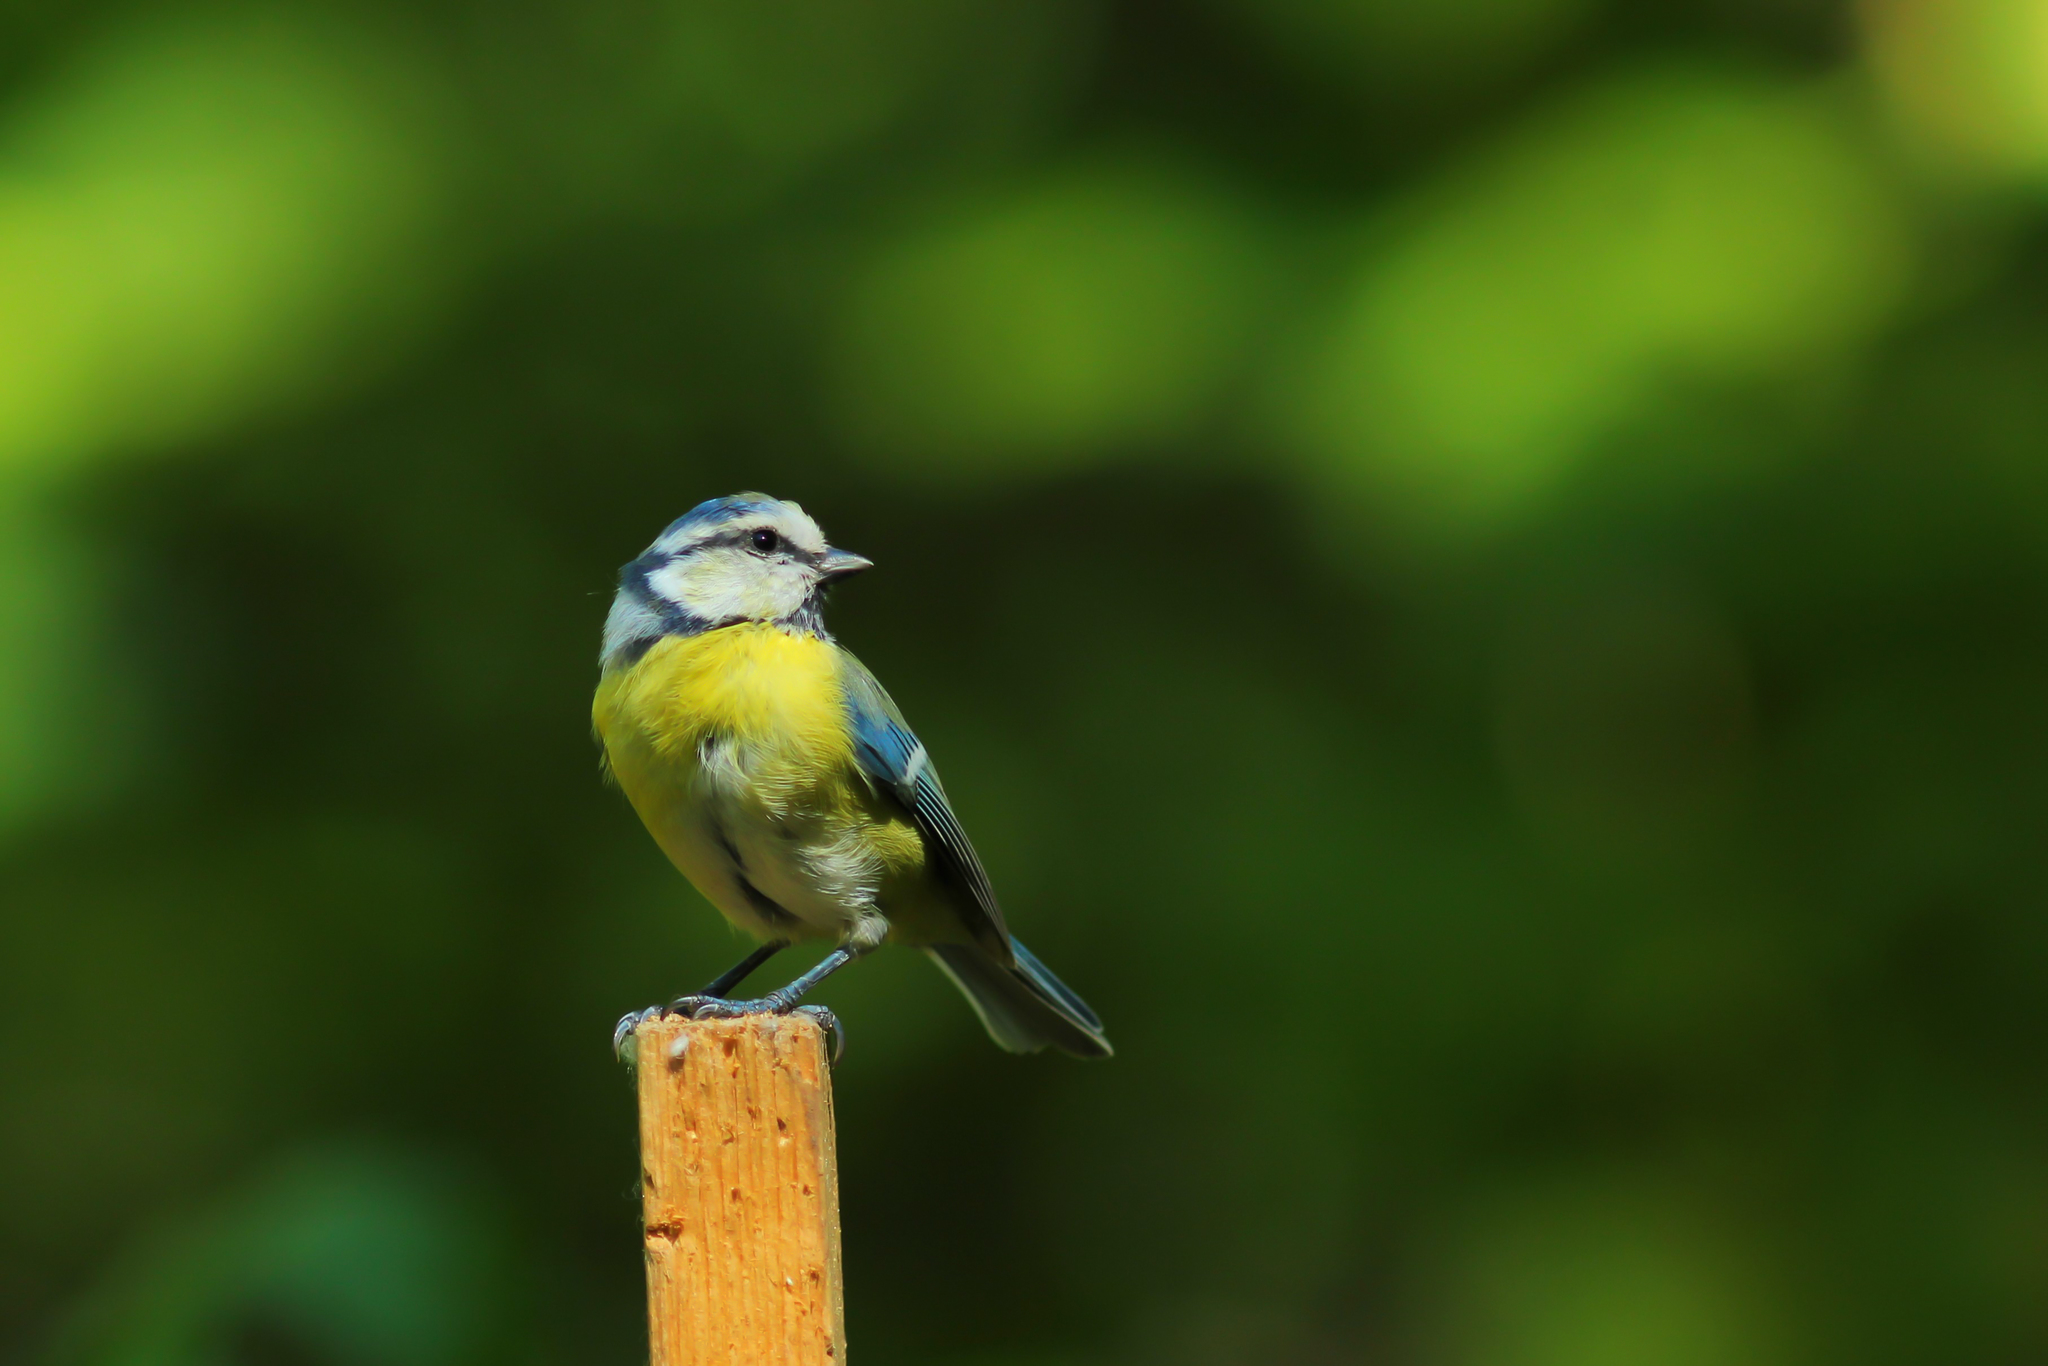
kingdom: Animalia
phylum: Chordata
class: Aves
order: Passeriformes
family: Paridae
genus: Cyanistes
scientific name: Cyanistes caeruleus
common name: Eurasian blue tit
